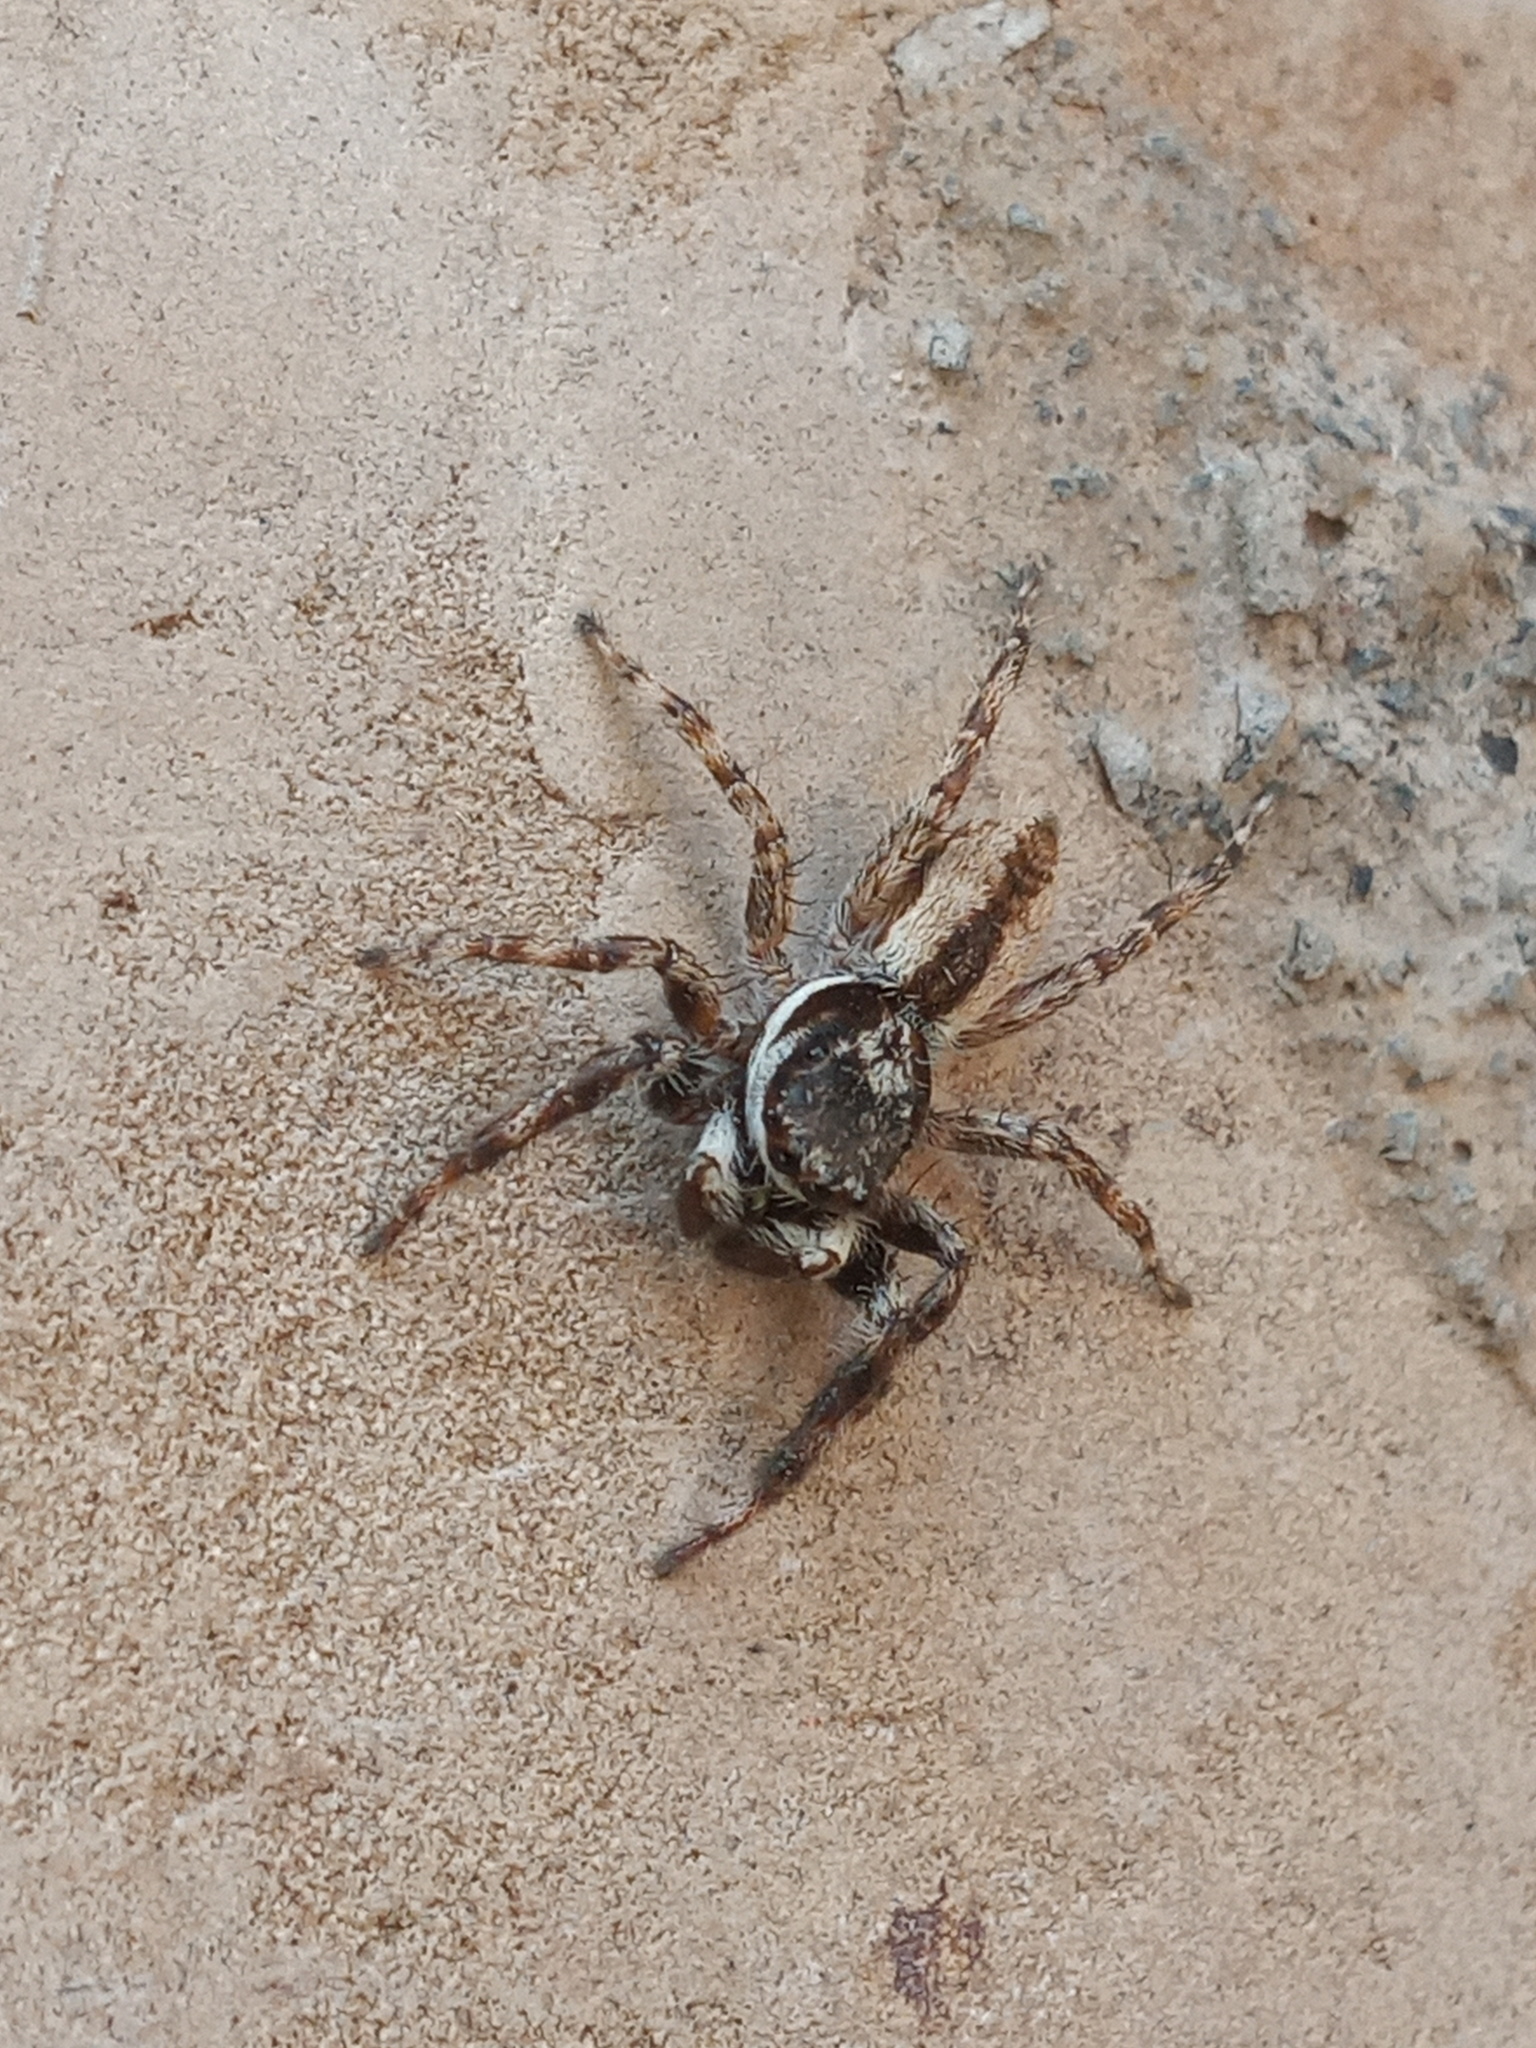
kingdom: Animalia
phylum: Arthropoda
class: Arachnida
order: Araneae
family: Salticidae
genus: Menemerus
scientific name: Menemerus bivittatus
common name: Gray wall jumper
